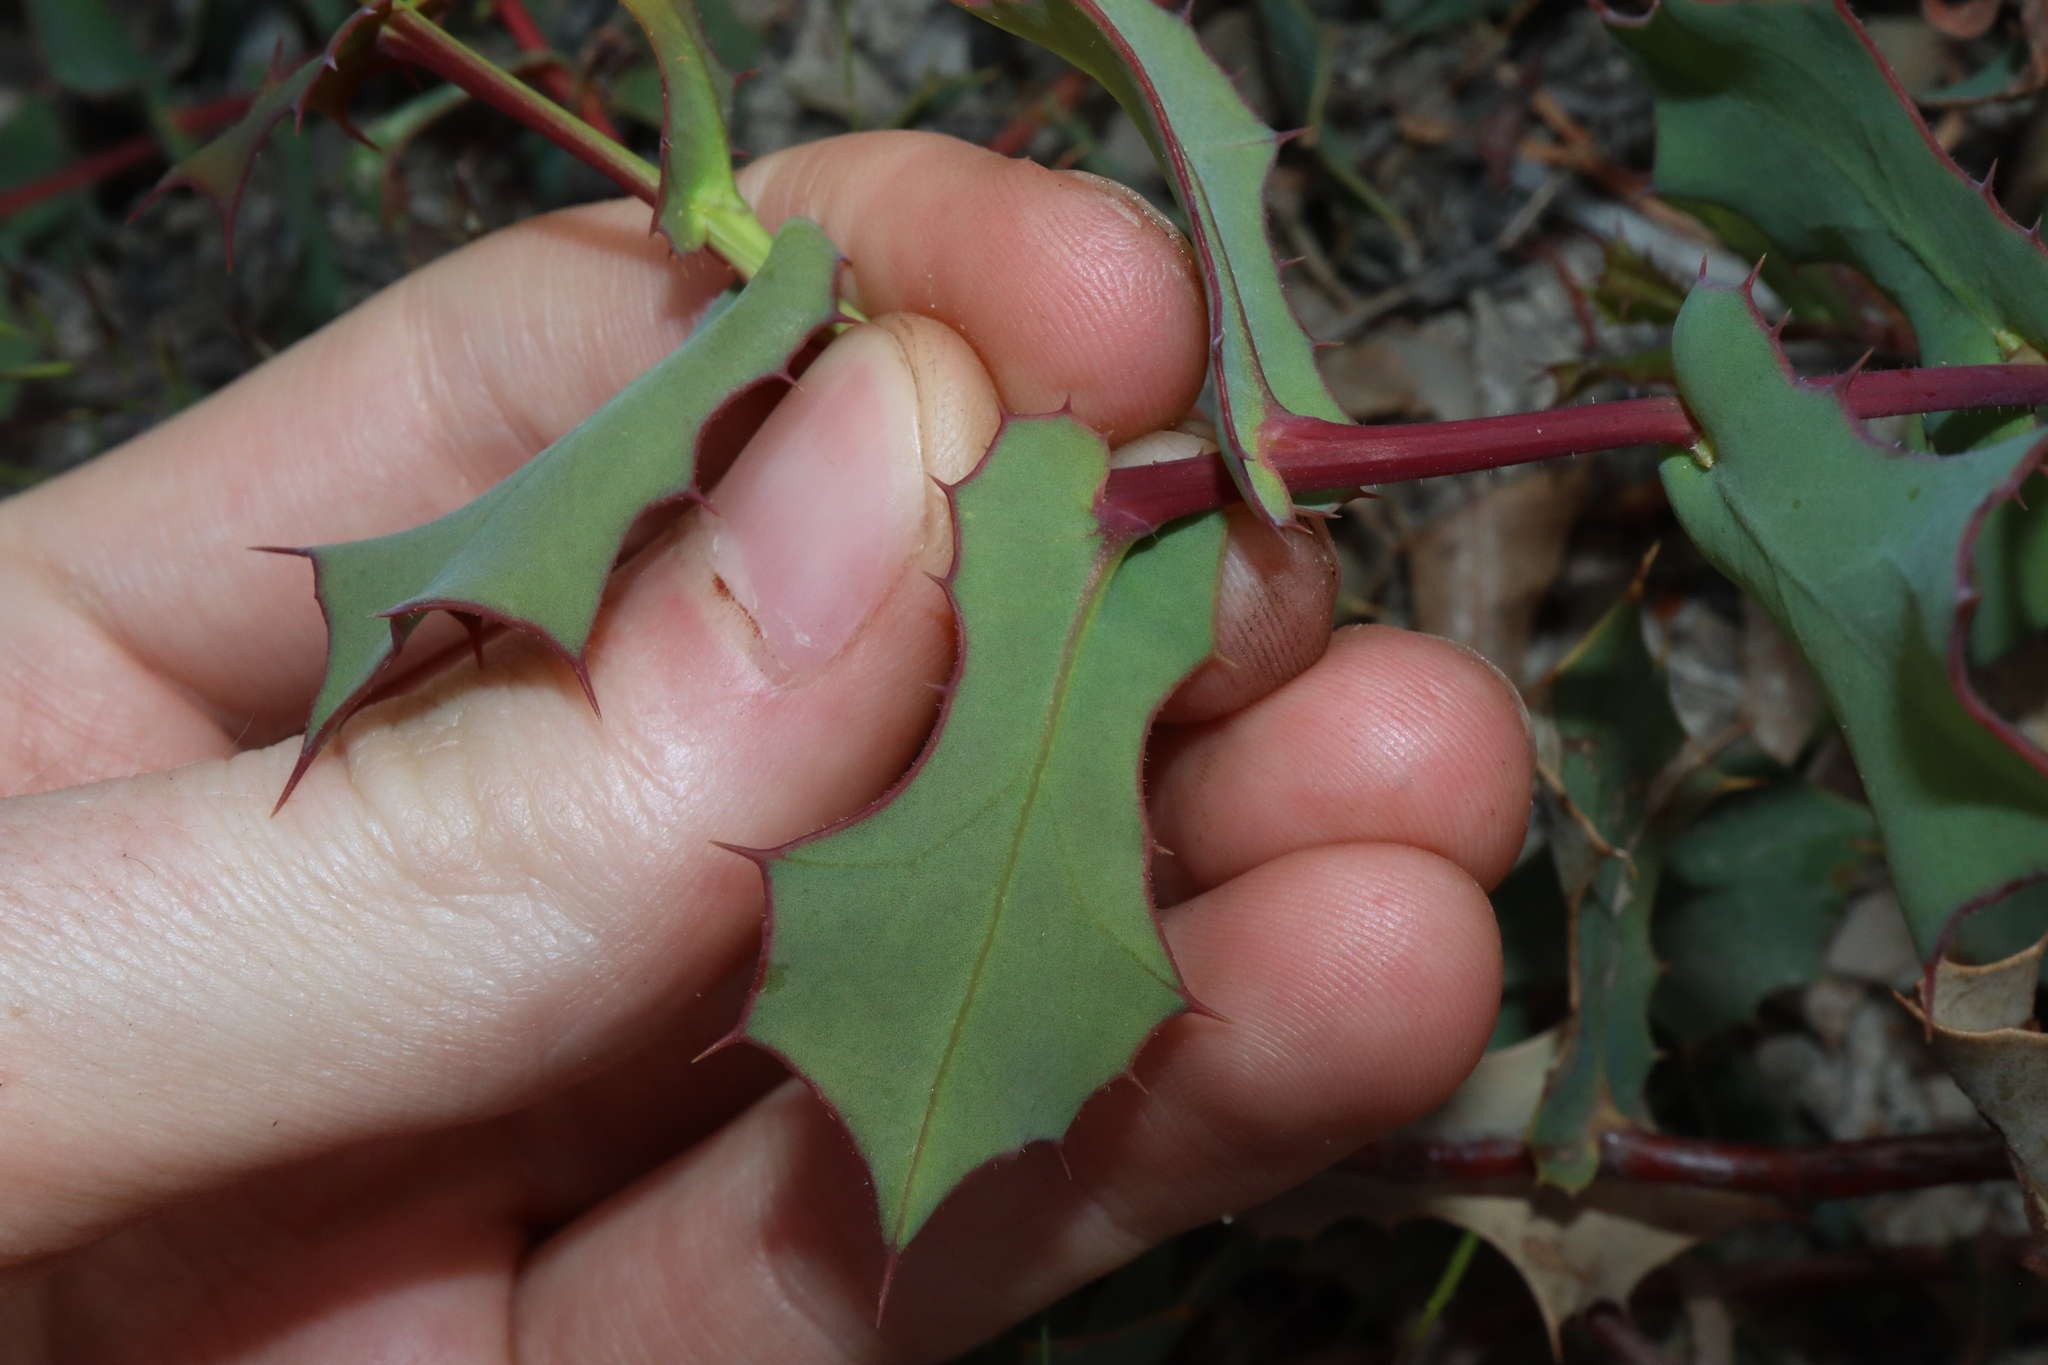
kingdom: Plantae
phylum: Tracheophyta
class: Magnoliopsida
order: Proteales
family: Proteaceae
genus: Hakea
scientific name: Hakea prostrata
